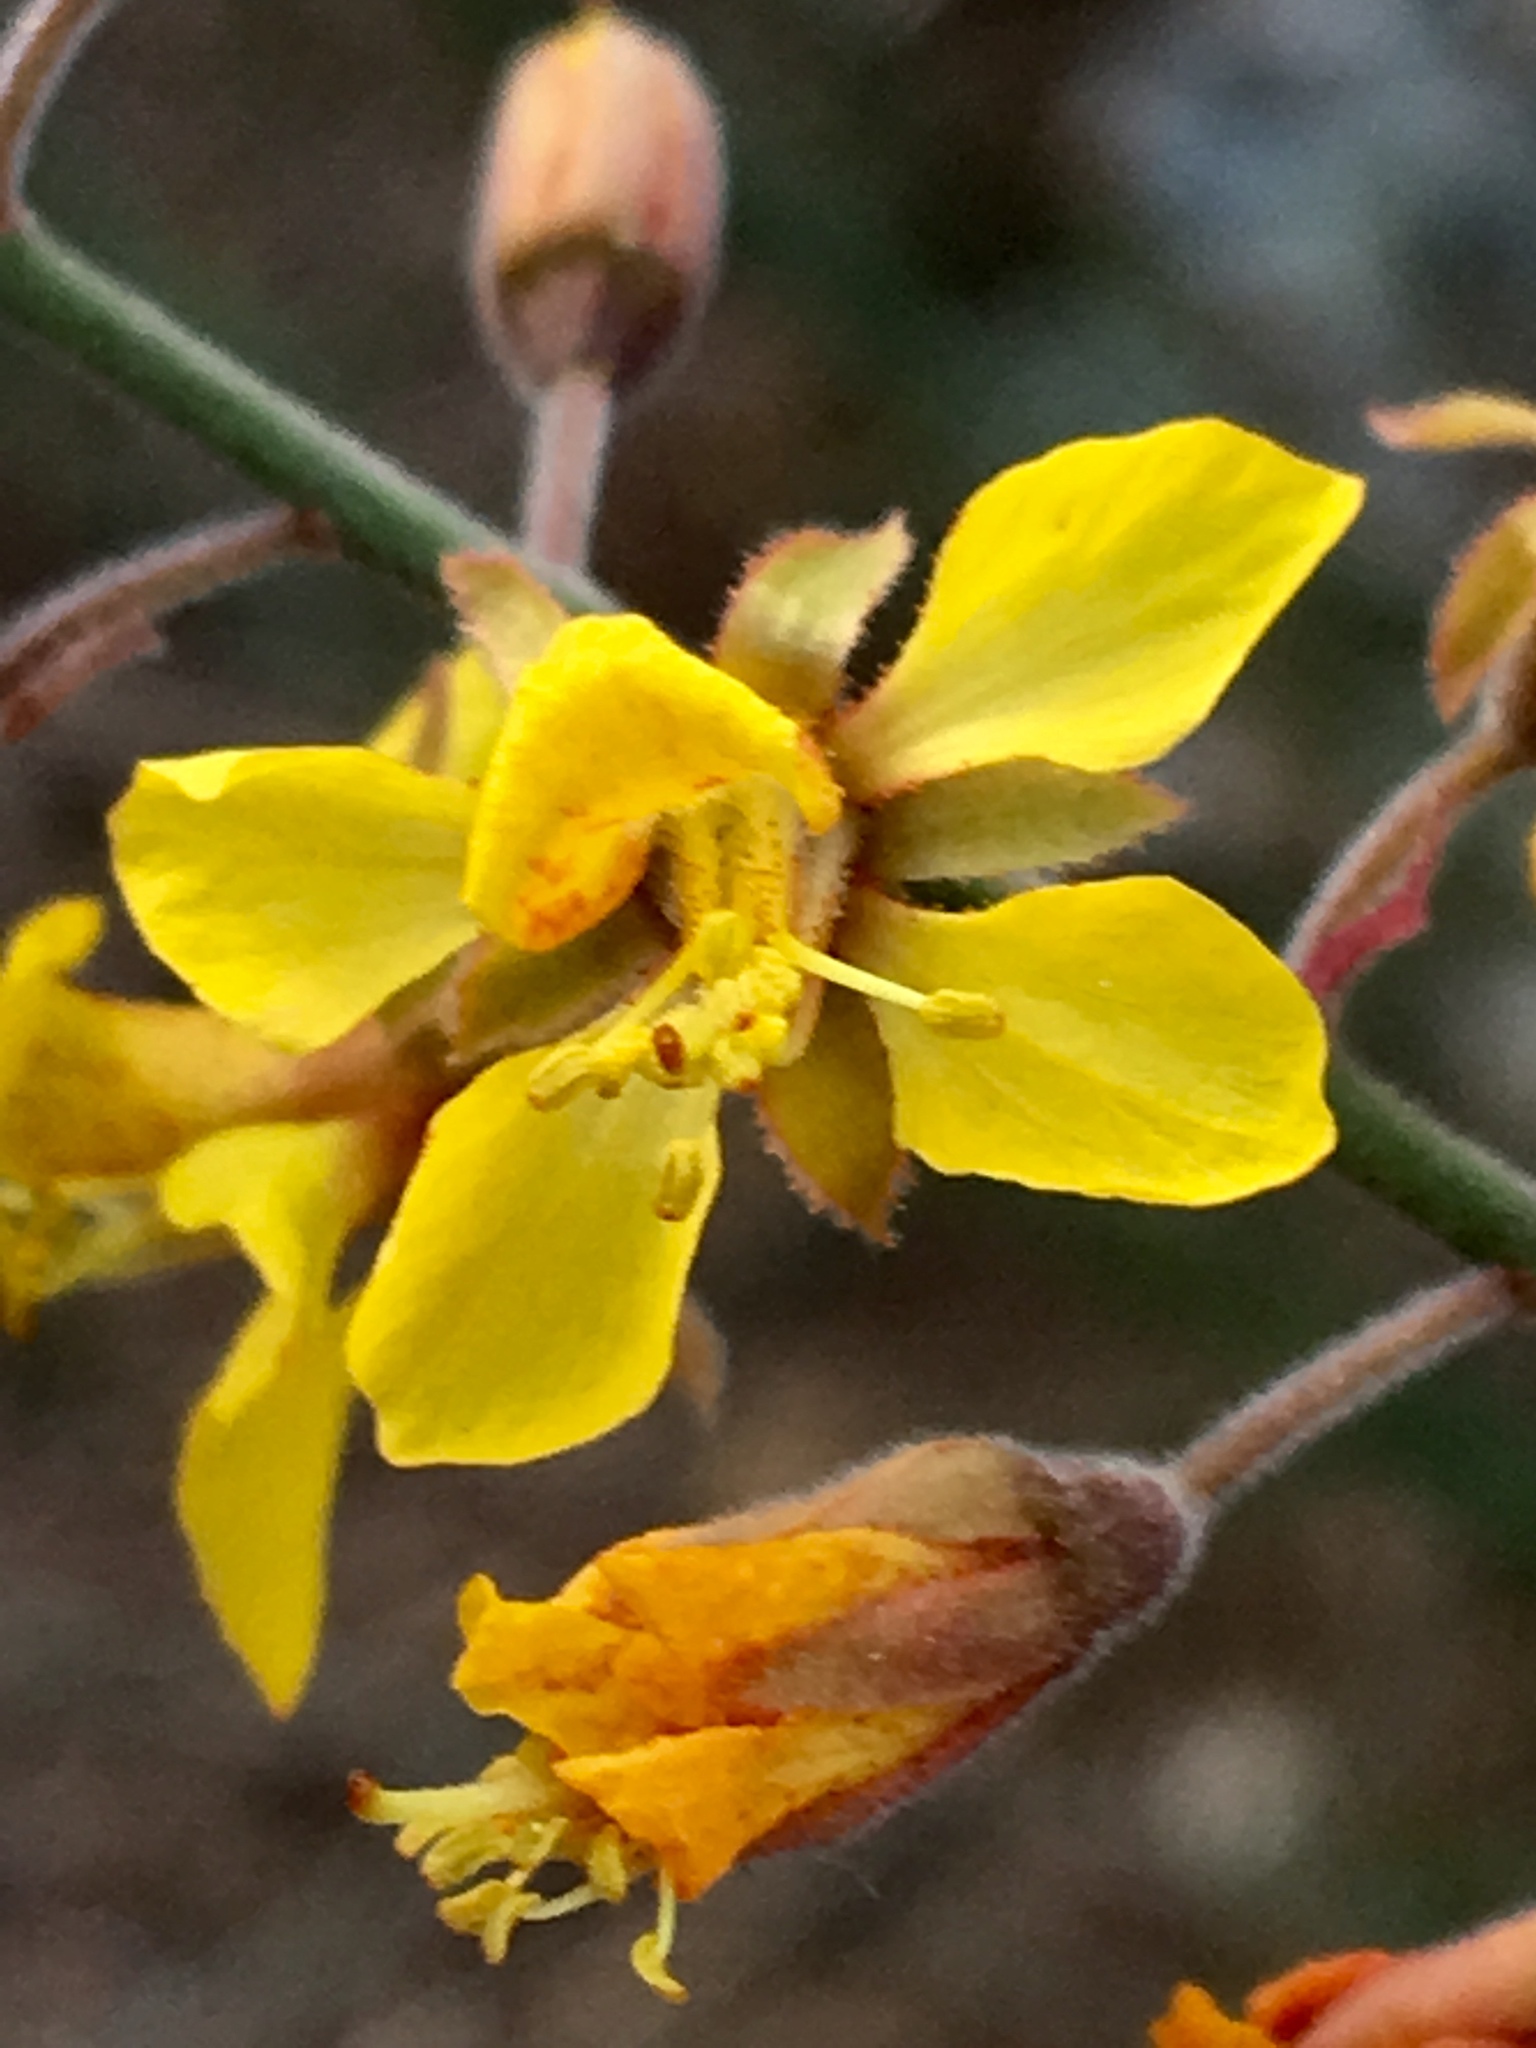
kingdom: Plantae
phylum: Tracheophyta
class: Magnoliopsida
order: Fabales
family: Fabaceae
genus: Hoffmannseggia
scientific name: Hoffmannseggia microphylla
